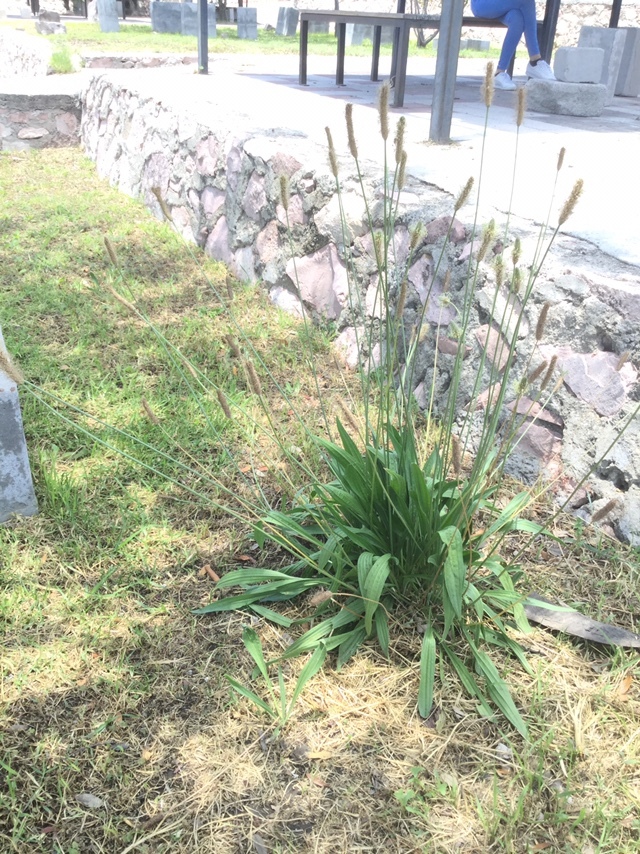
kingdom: Plantae
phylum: Tracheophyta
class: Magnoliopsida
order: Lamiales
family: Plantaginaceae
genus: Plantago
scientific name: Plantago lanceolata
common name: Ribwort plantain
